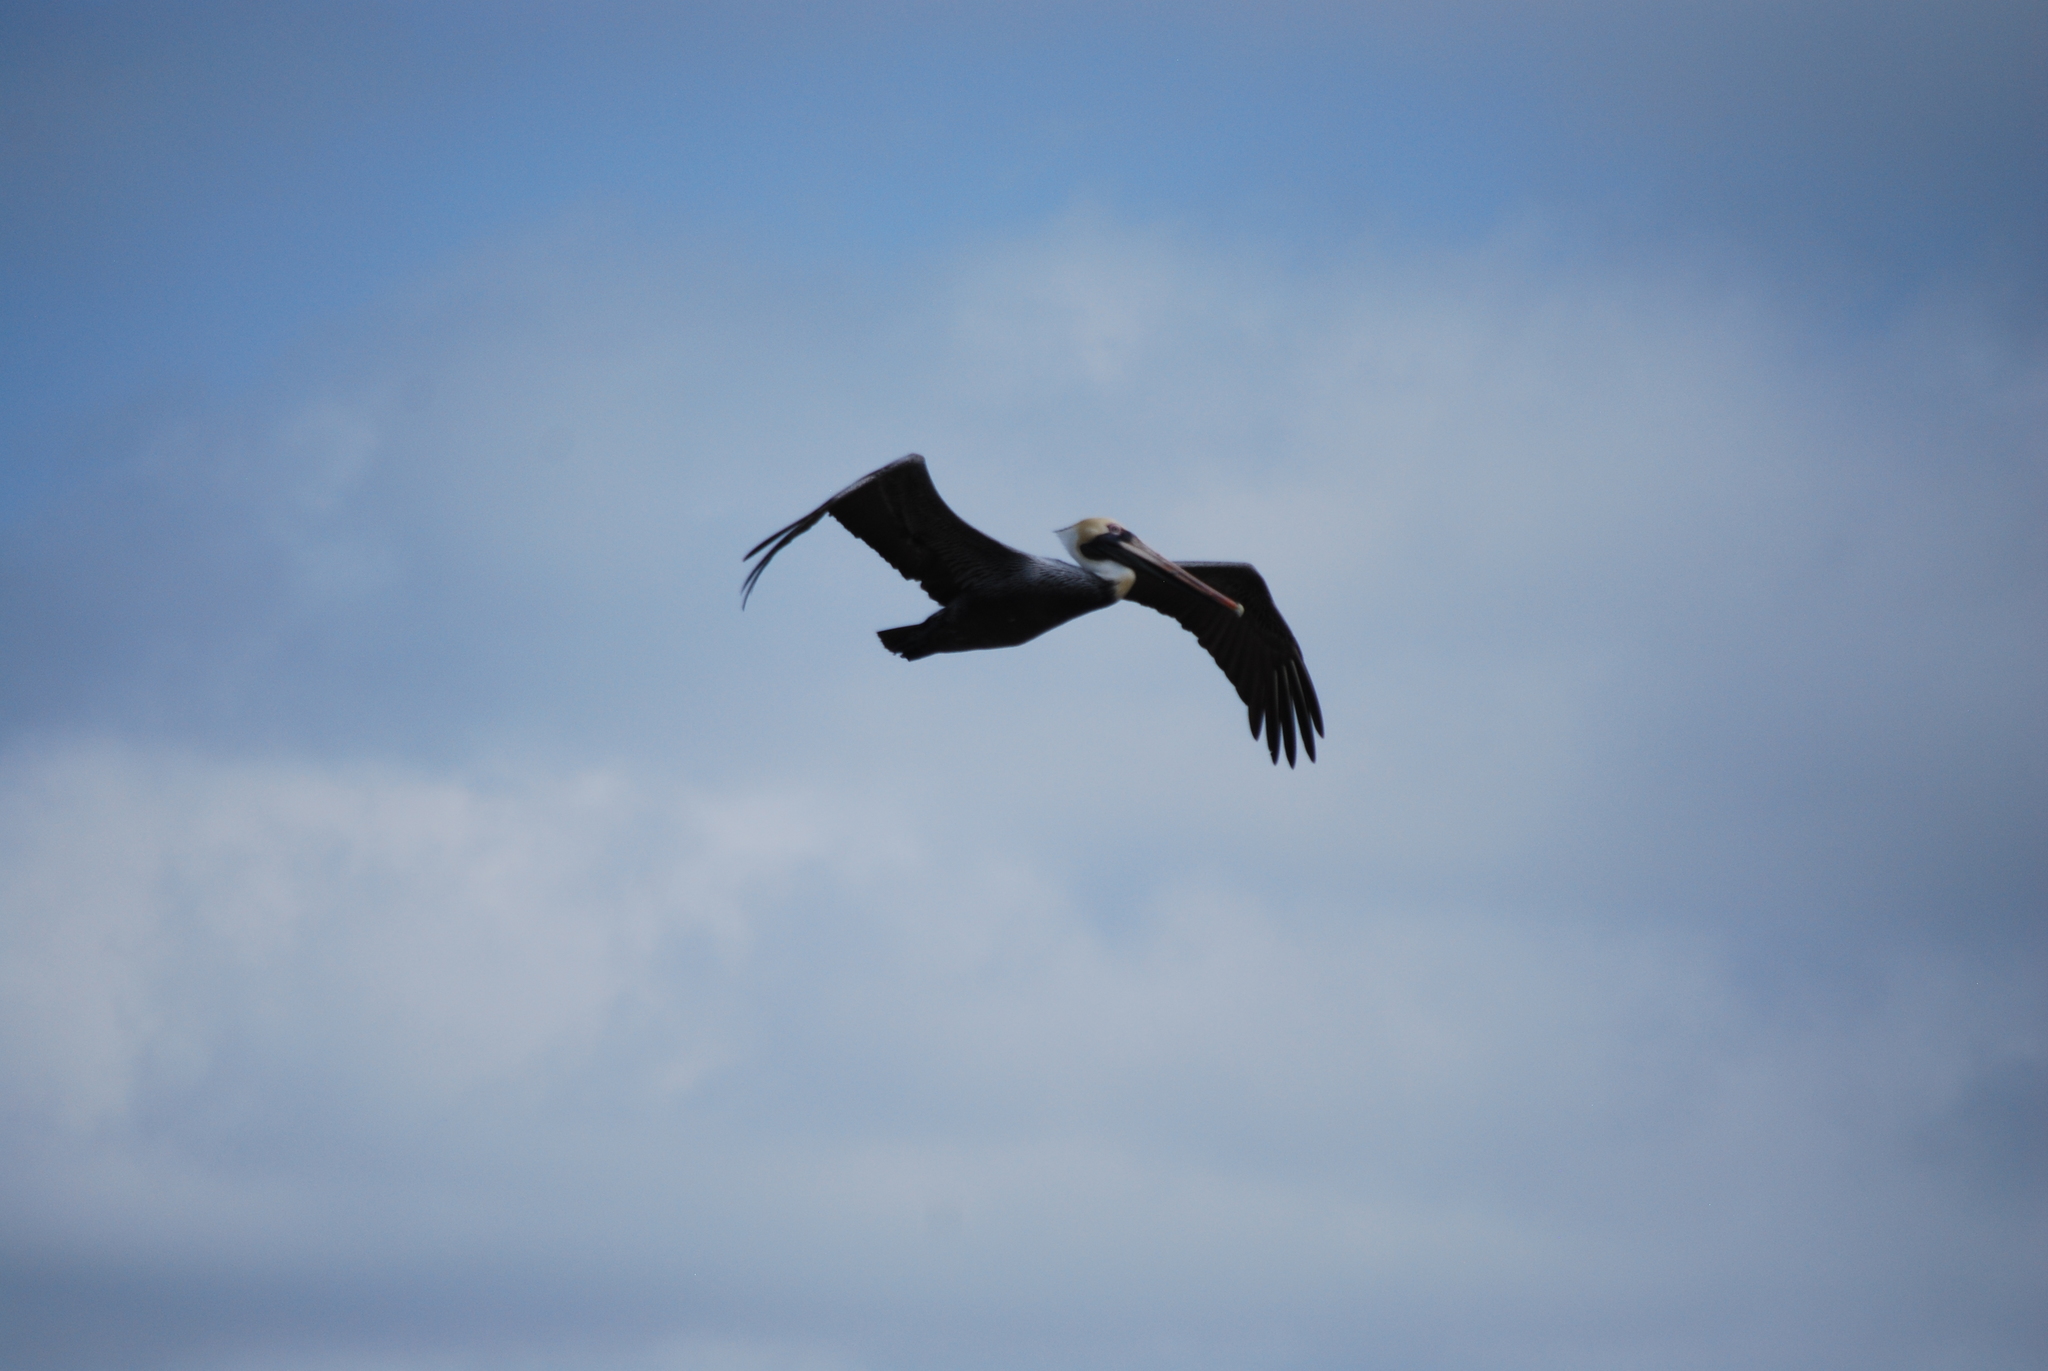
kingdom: Animalia
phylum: Chordata
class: Aves
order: Pelecaniformes
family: Pelecanidae
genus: Pelecanus
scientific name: Pelecanus occidentalis
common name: Brown pelican
